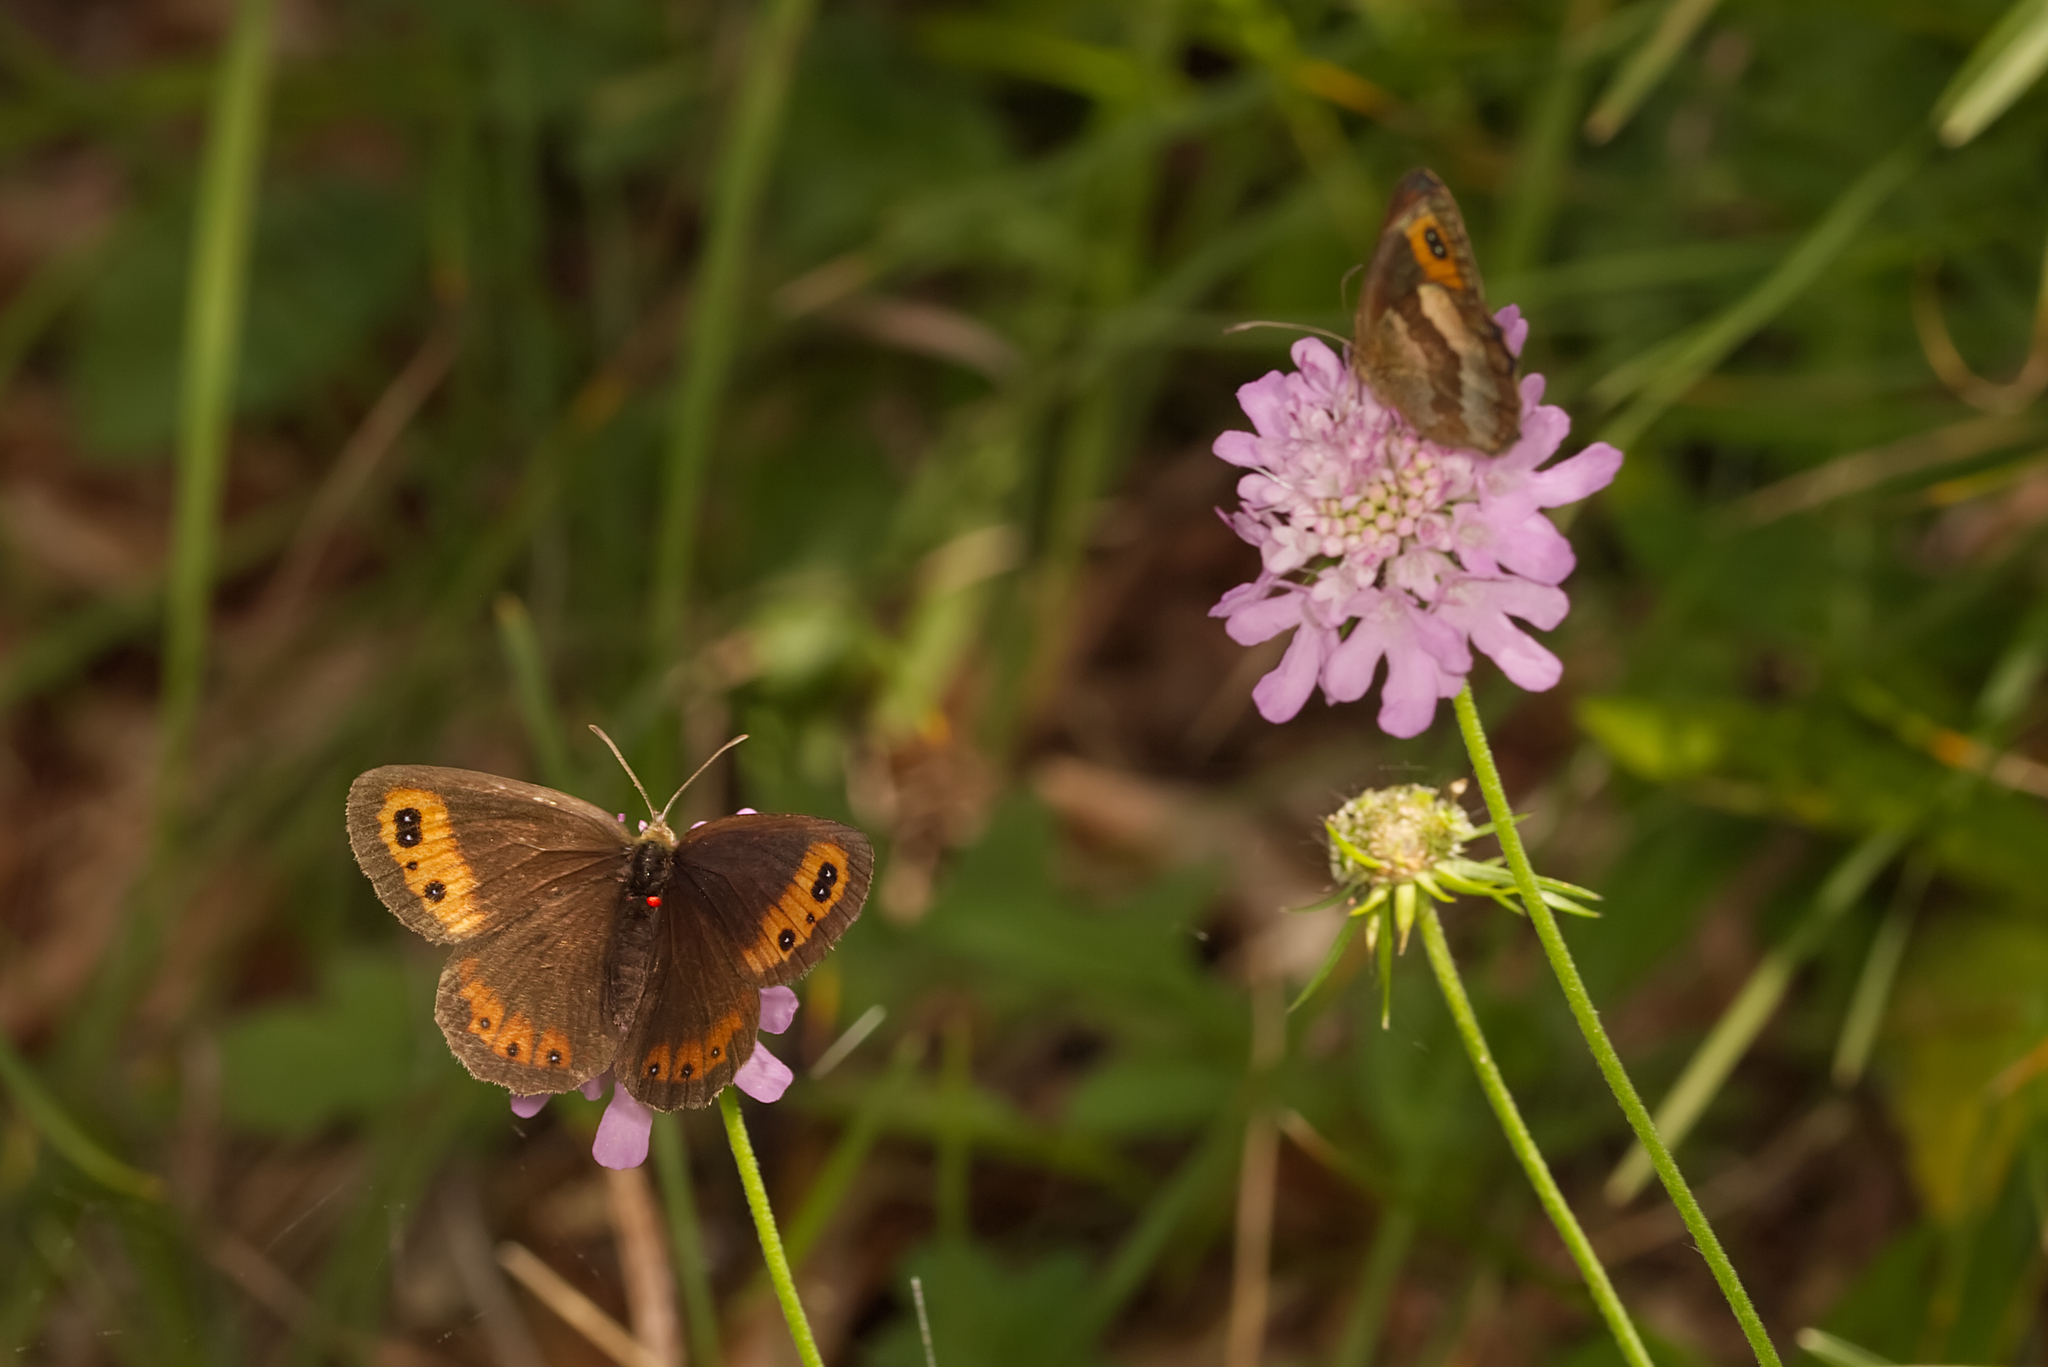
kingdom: Animalia
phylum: Arthropoda
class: Insecta
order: Lepidoptera
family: Nymphalidae
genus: Erebia
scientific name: Erebia aethiops
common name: Scotch argus
